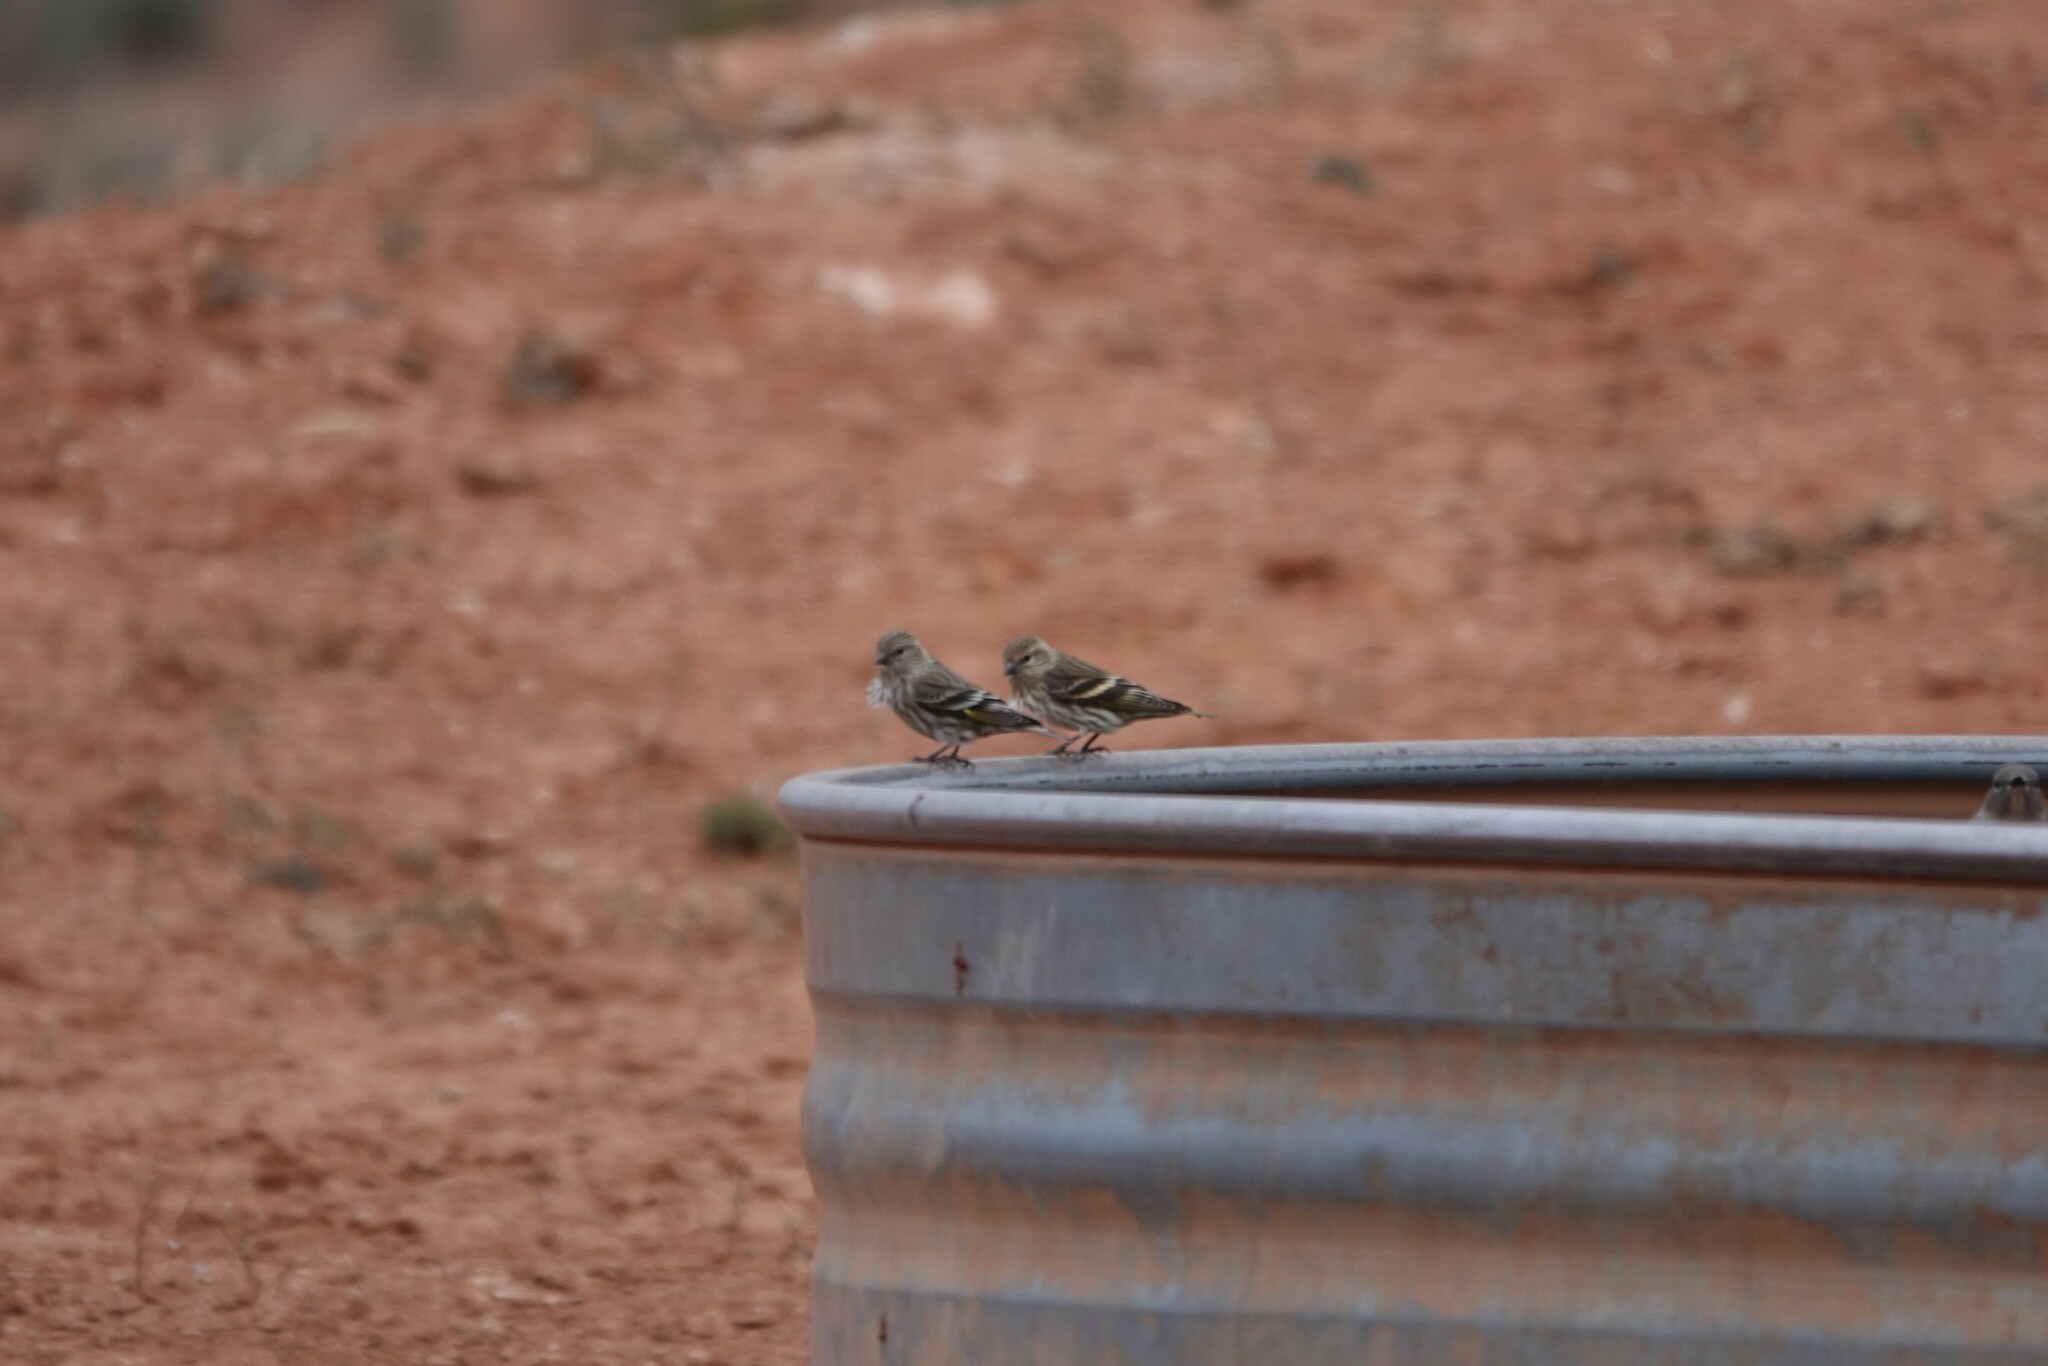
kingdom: Animalia
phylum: Chordata
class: Aves
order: Passeriformes
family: Fringillidae
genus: Spinus
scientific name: Spinus pinus
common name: Pine siskin
